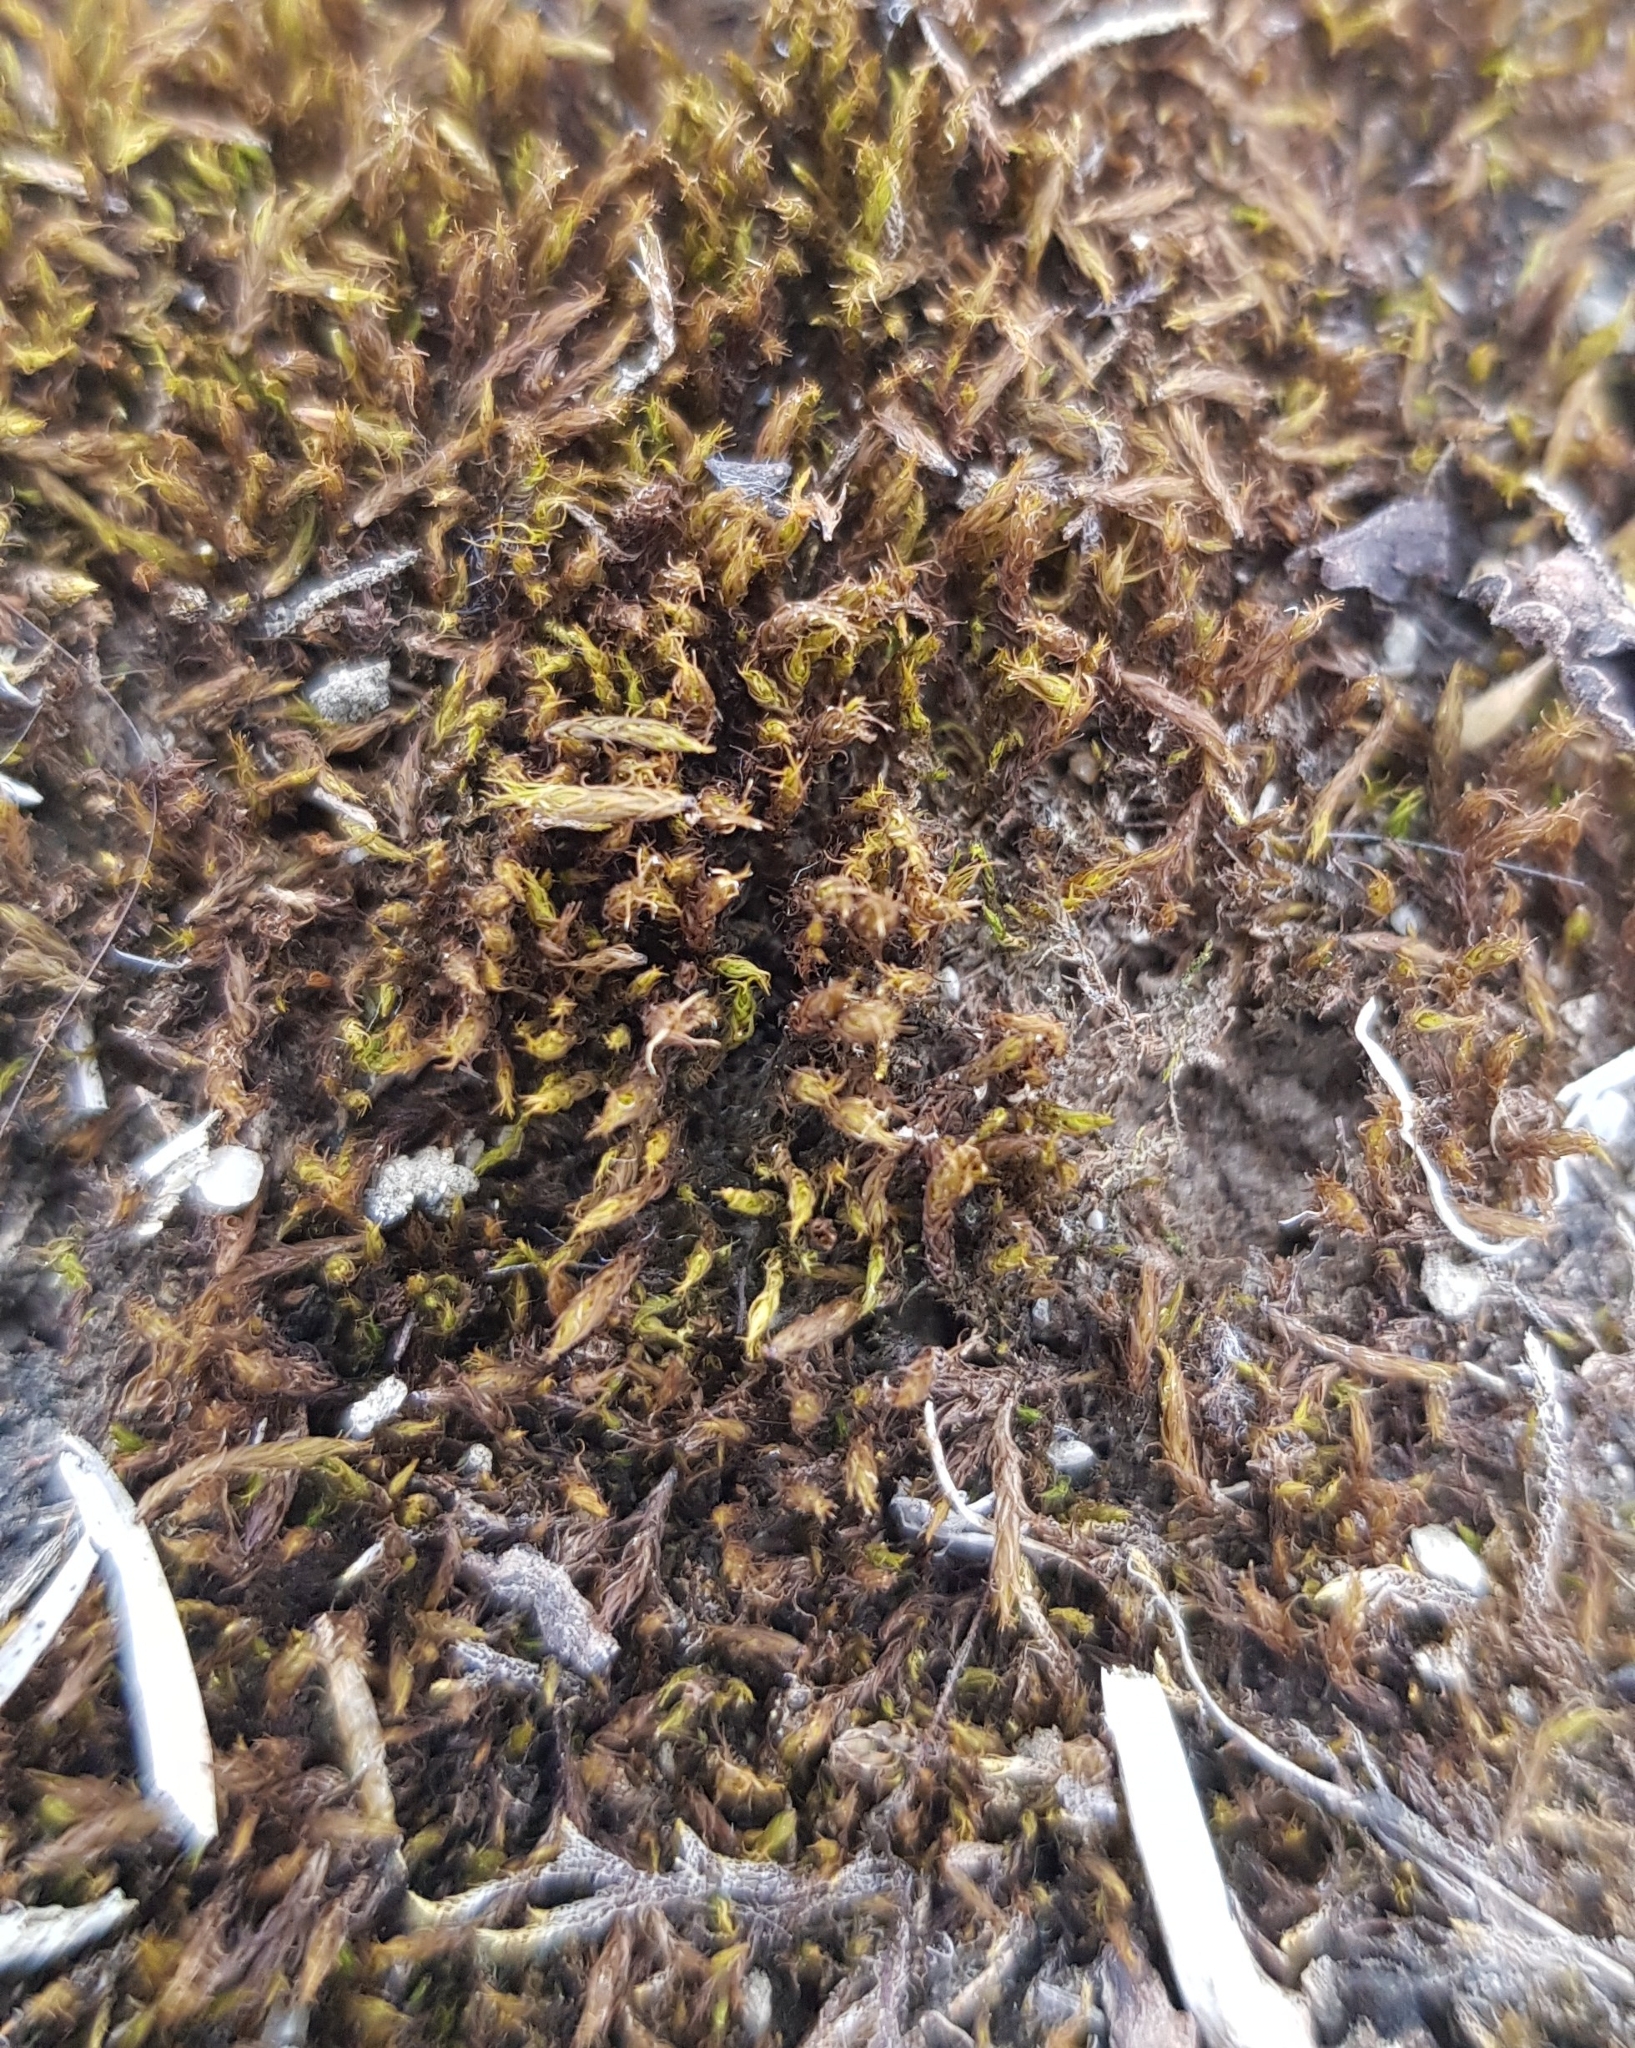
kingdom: Plantae
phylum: Bryophyta
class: Bryopsida
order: Pottiales
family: Pottiaceae
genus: Didymodon
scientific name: Didymodon icmadophilus
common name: Pointed beard-moss
